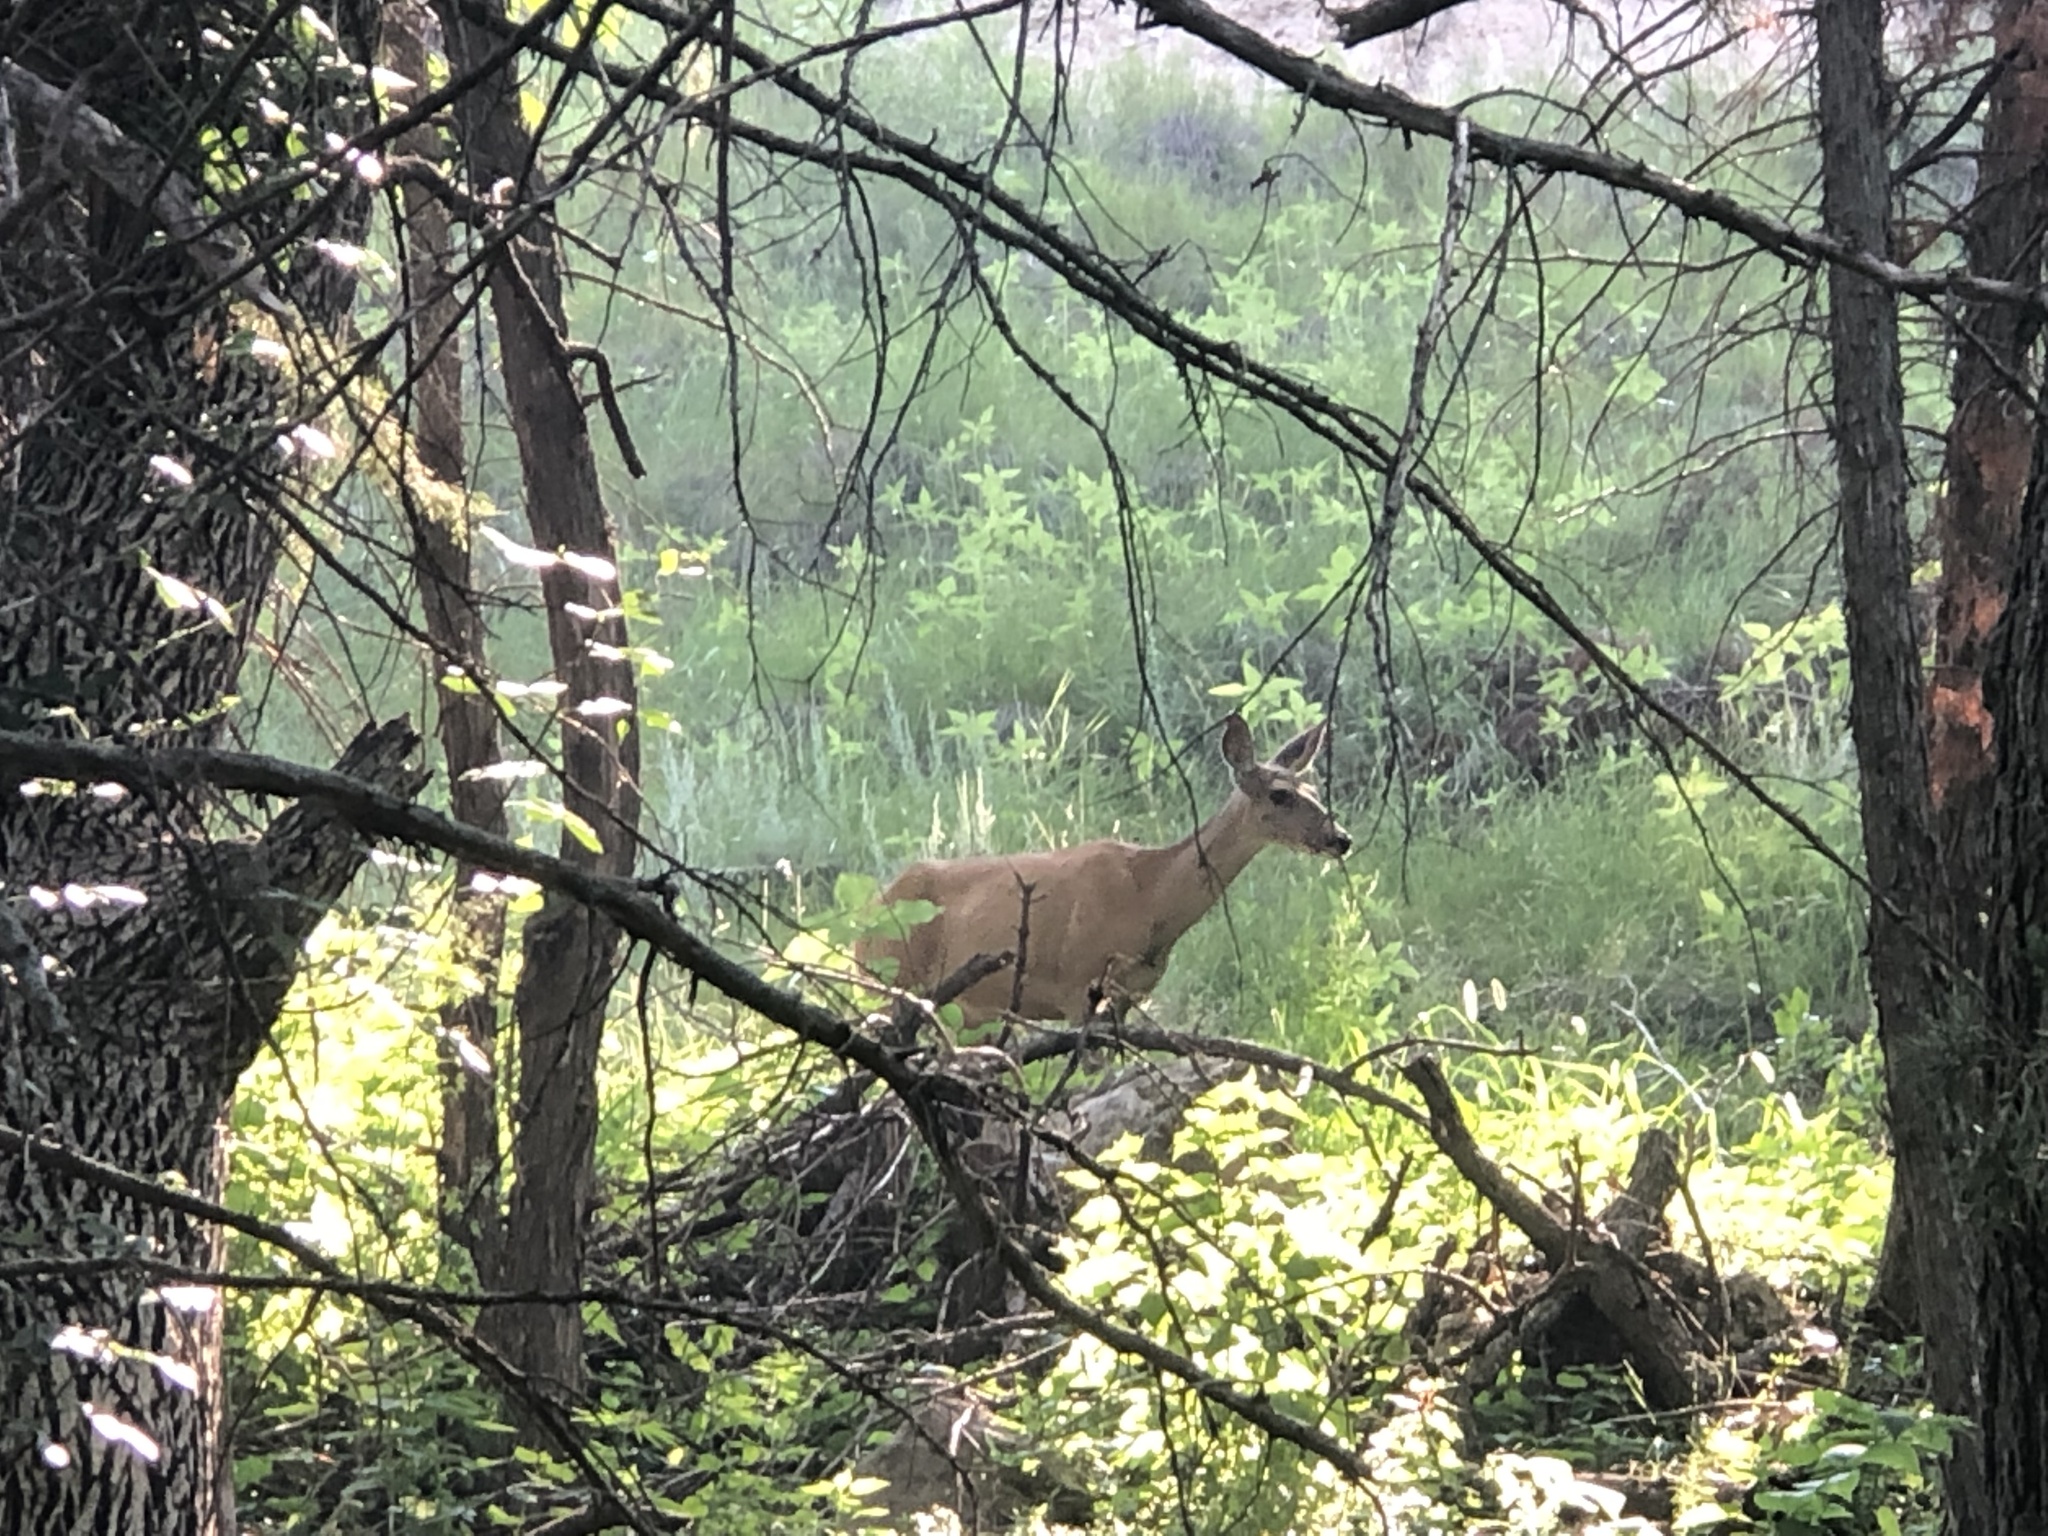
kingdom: Animalia
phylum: Chordata
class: Mammalia
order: Artiodactyla
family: Cervidae
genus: Odocoileus
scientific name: Odocoileus hemionus
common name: Mule deer
